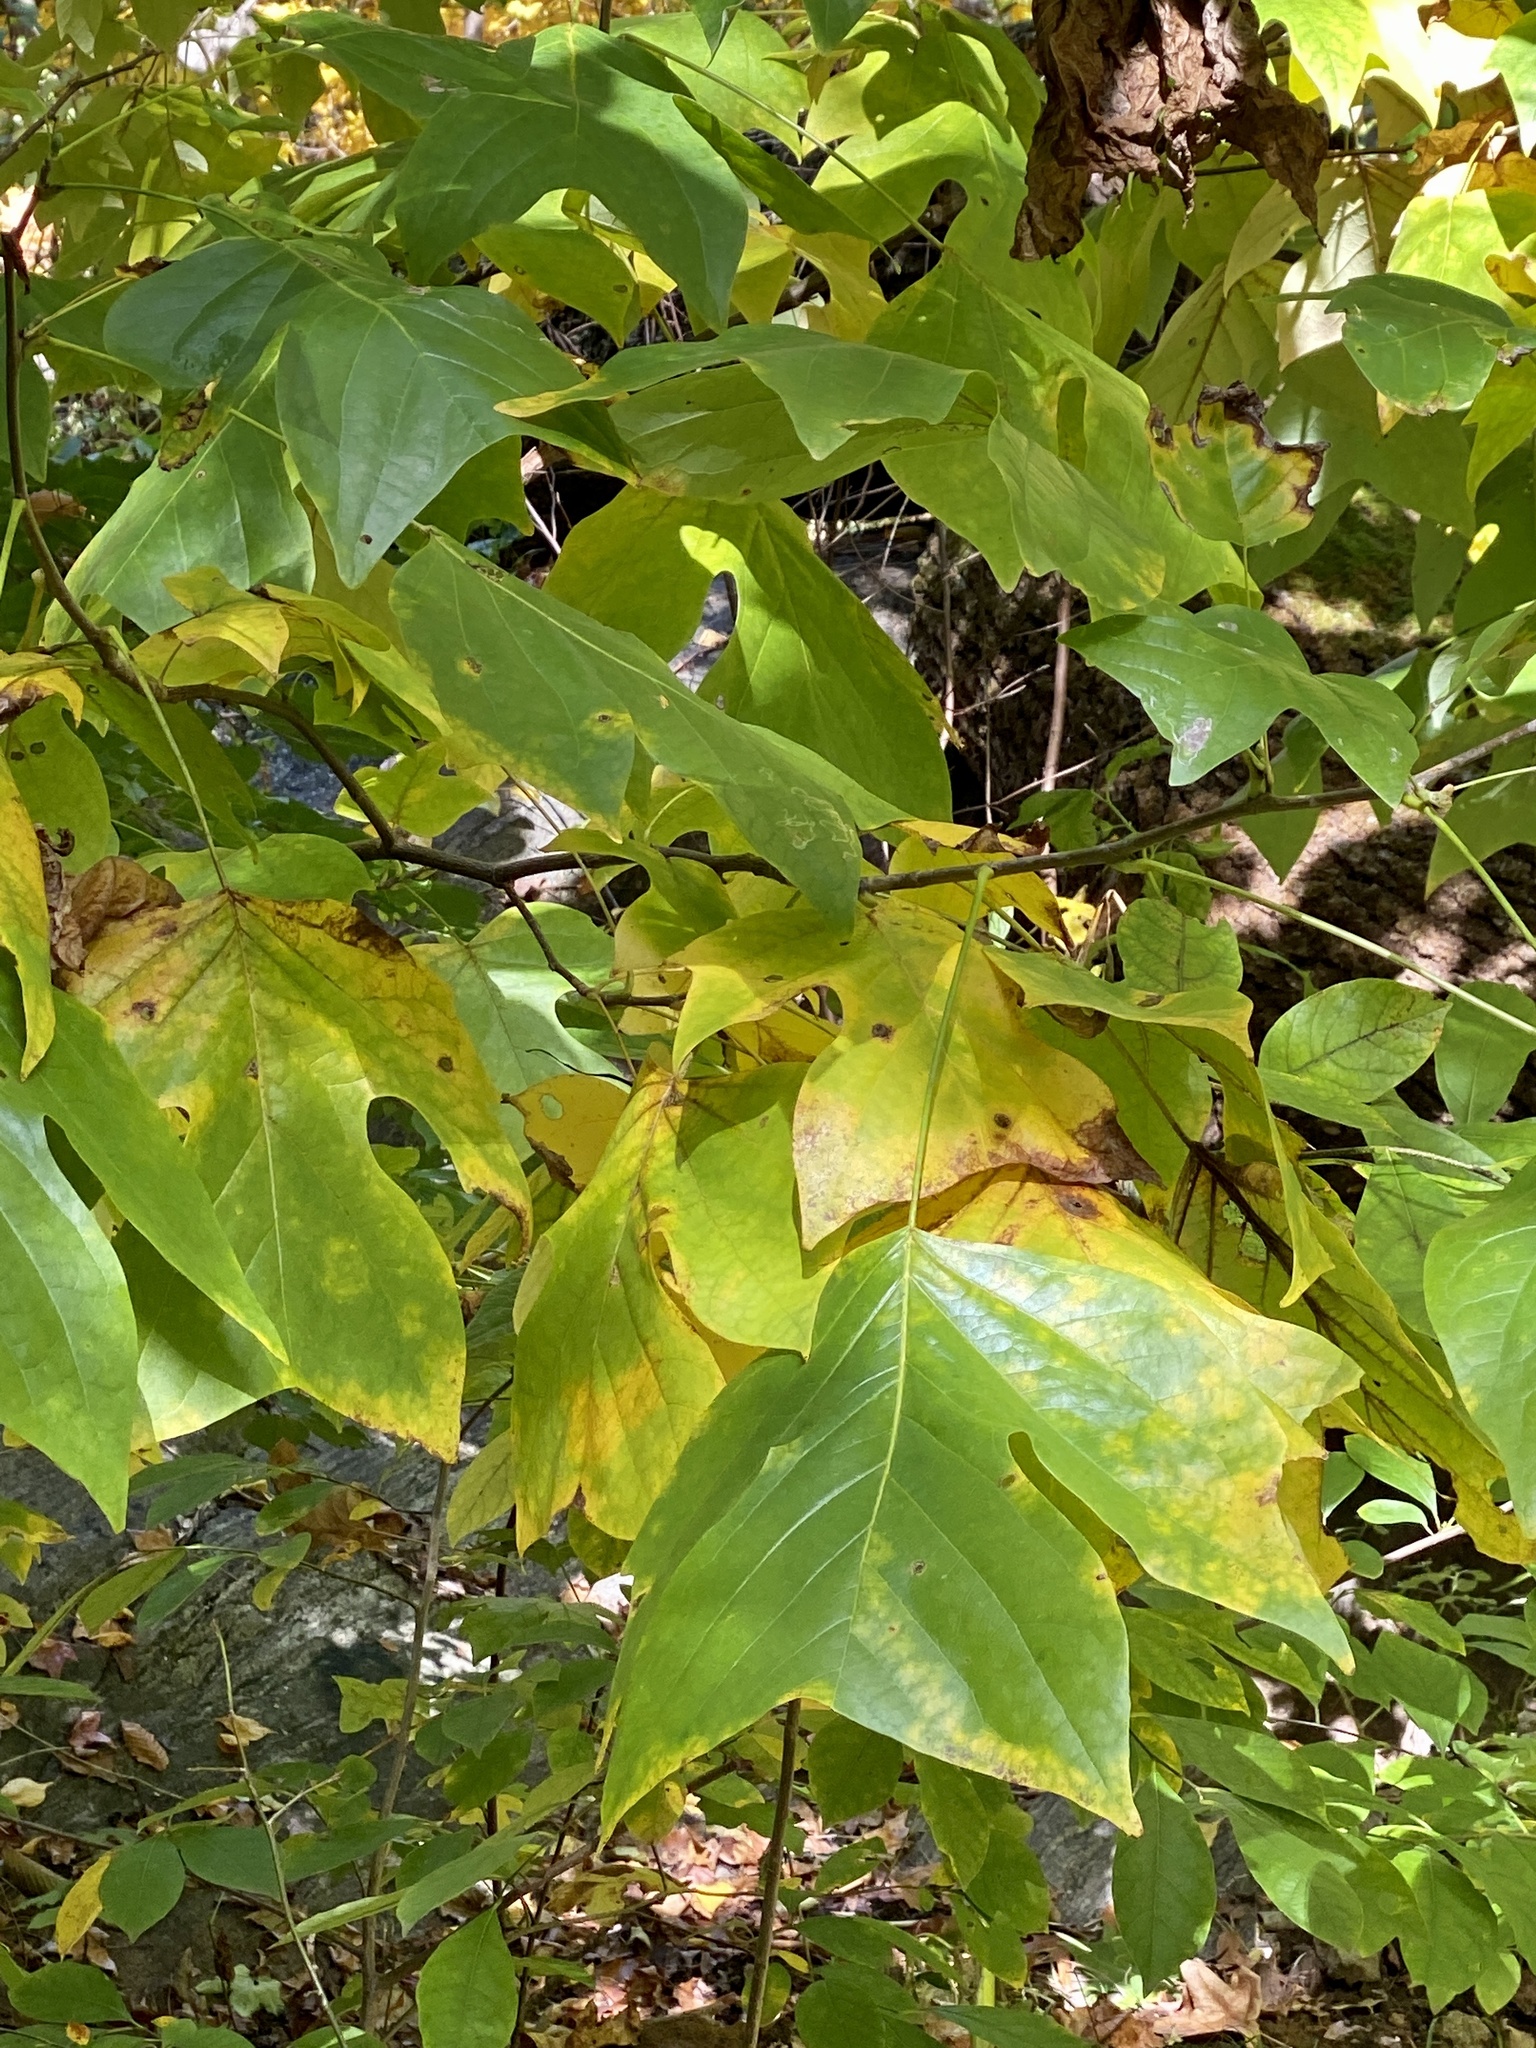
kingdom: Plantae
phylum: Tracheophyta
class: Magnoliopsida
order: Magnoliales
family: Magnoliaceae
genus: Liriodendron
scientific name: Liriodendron tulipifera
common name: Tulip tree
